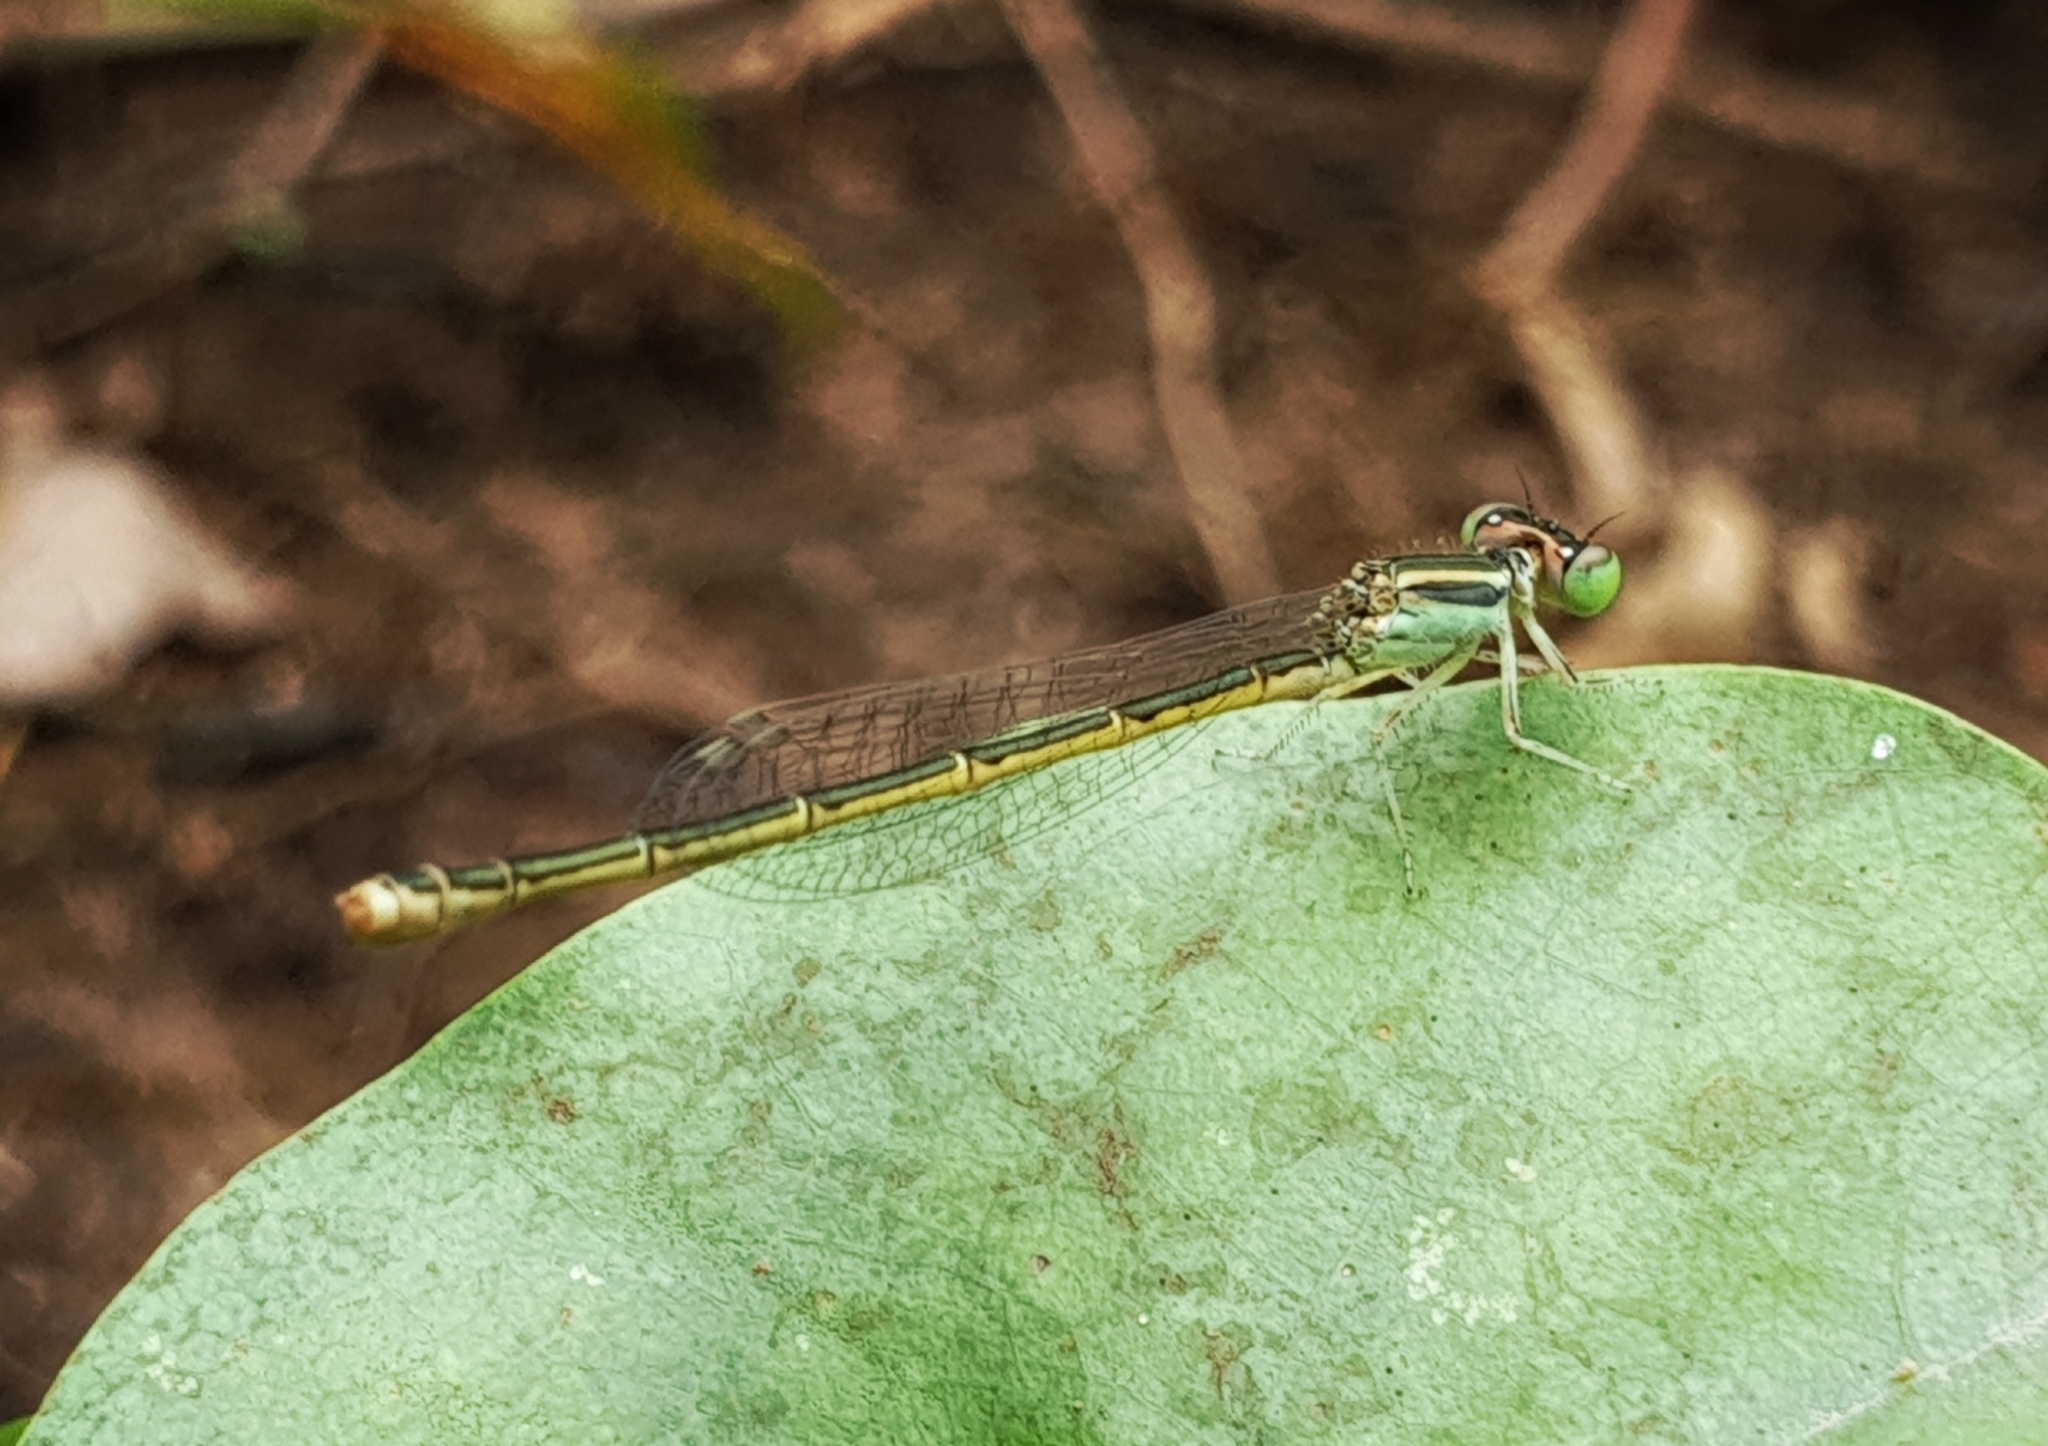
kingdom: Animalia
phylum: Arthropoda
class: Insecta
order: Odonata
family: Coenagrionidae
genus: Ischnura
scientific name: Ischnura rubilio
